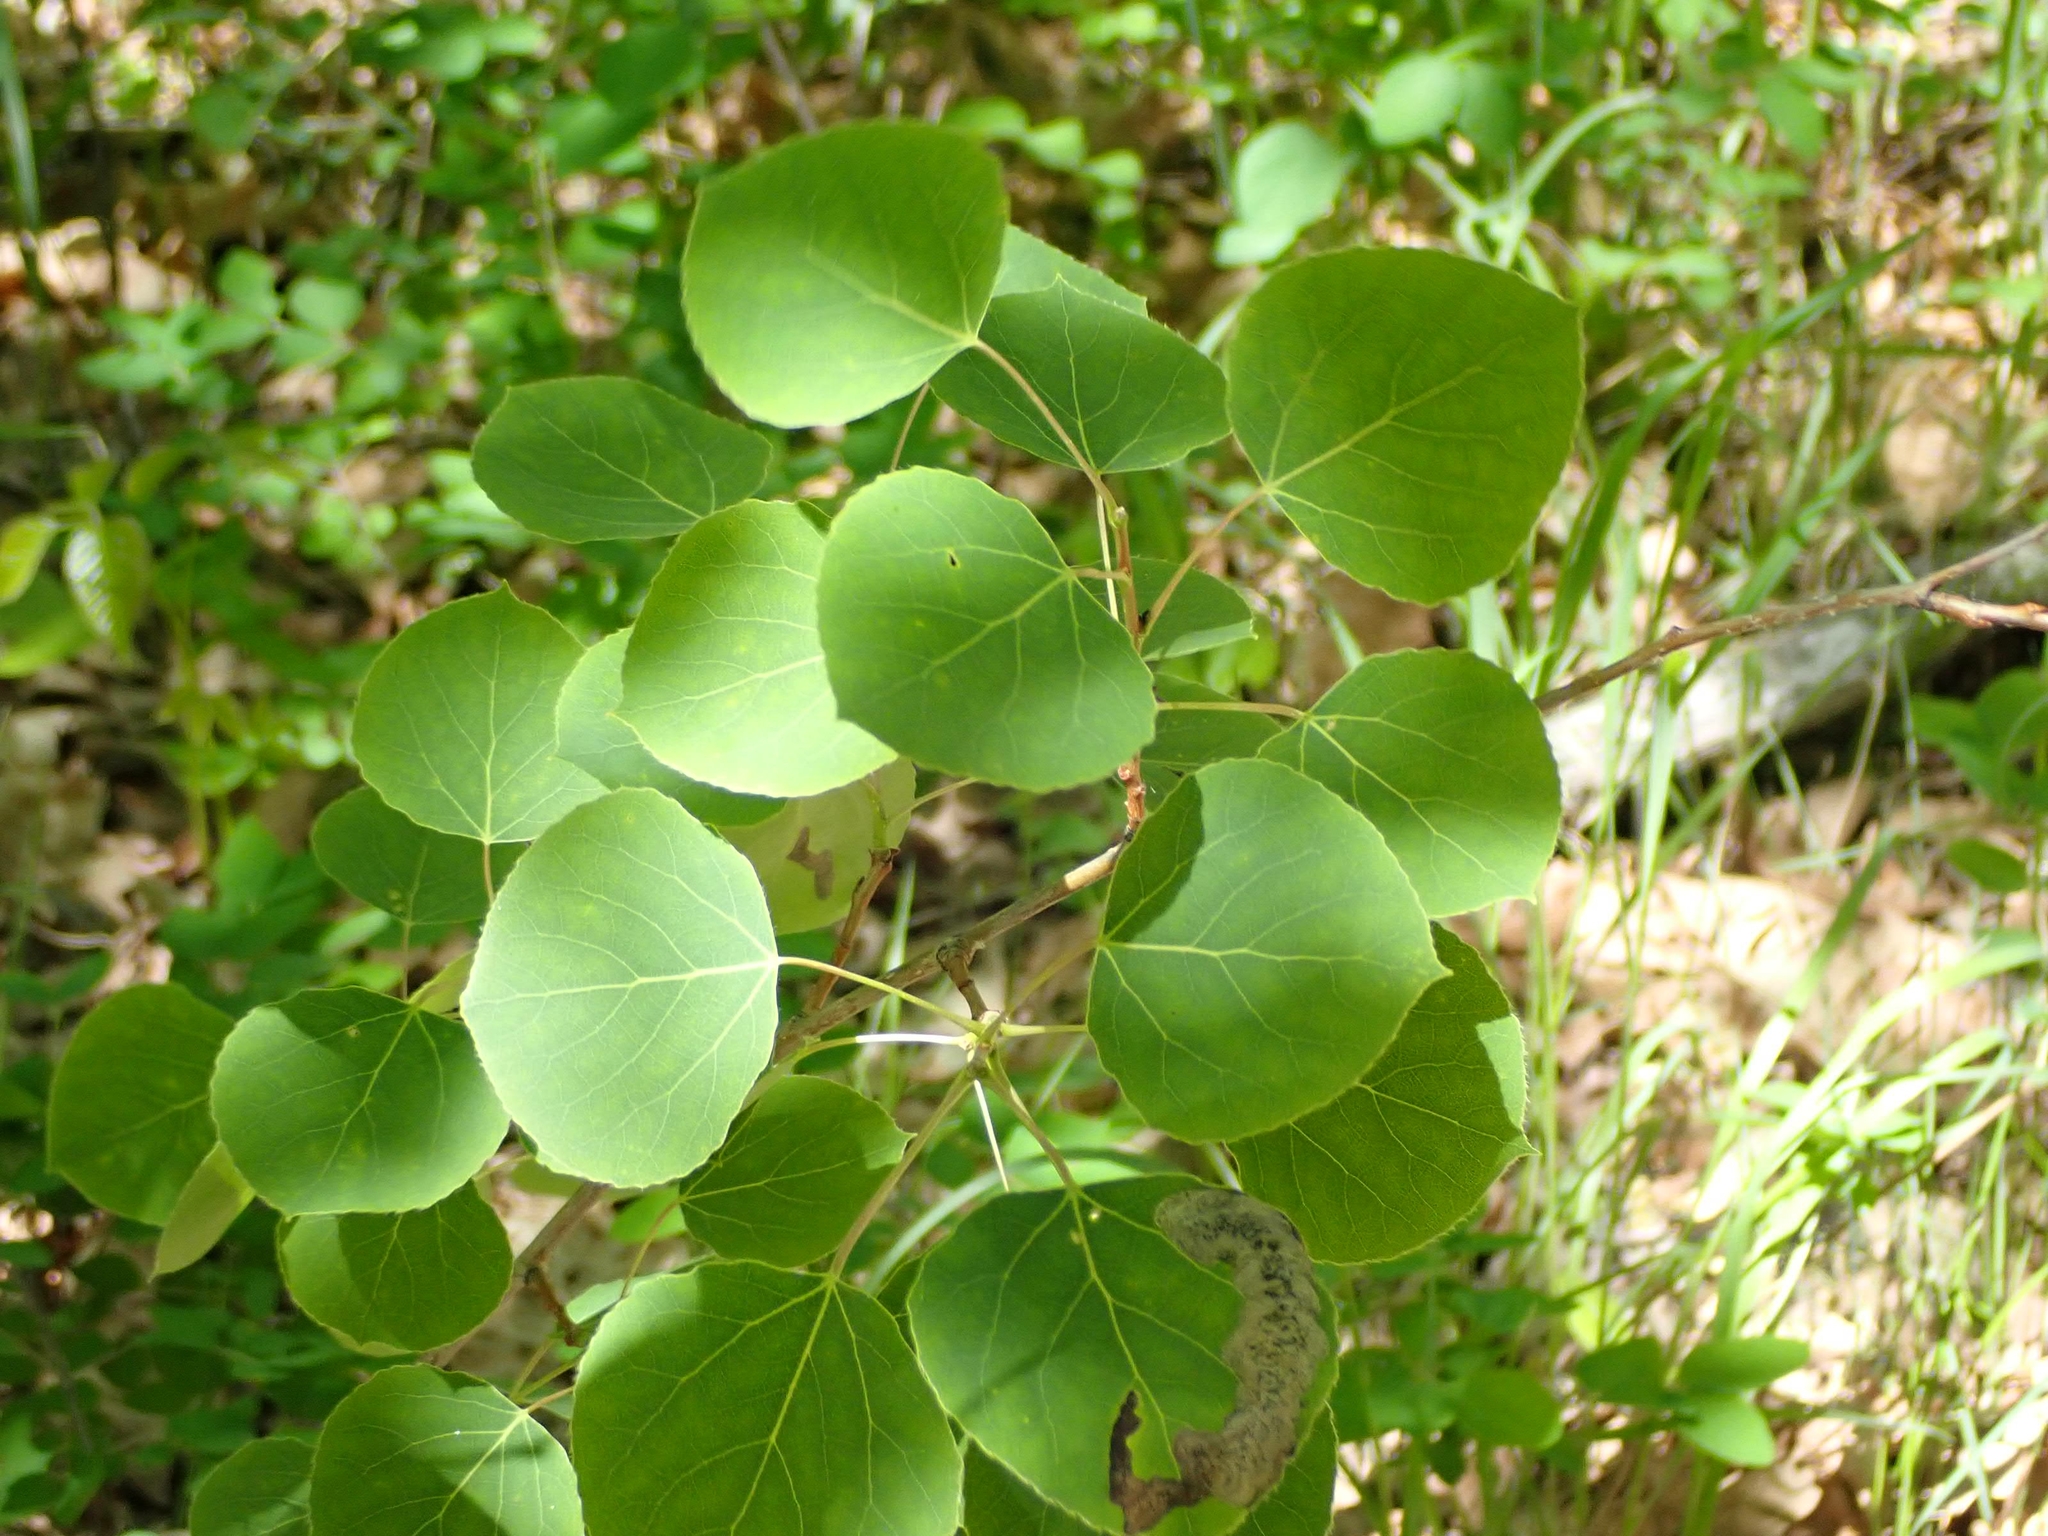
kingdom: Plantae
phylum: Tracheophyta
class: Magnoliopsida
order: Malpighiales
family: Salicaceae
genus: Populus
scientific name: Populus tremuloides
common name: Quaking aspen
